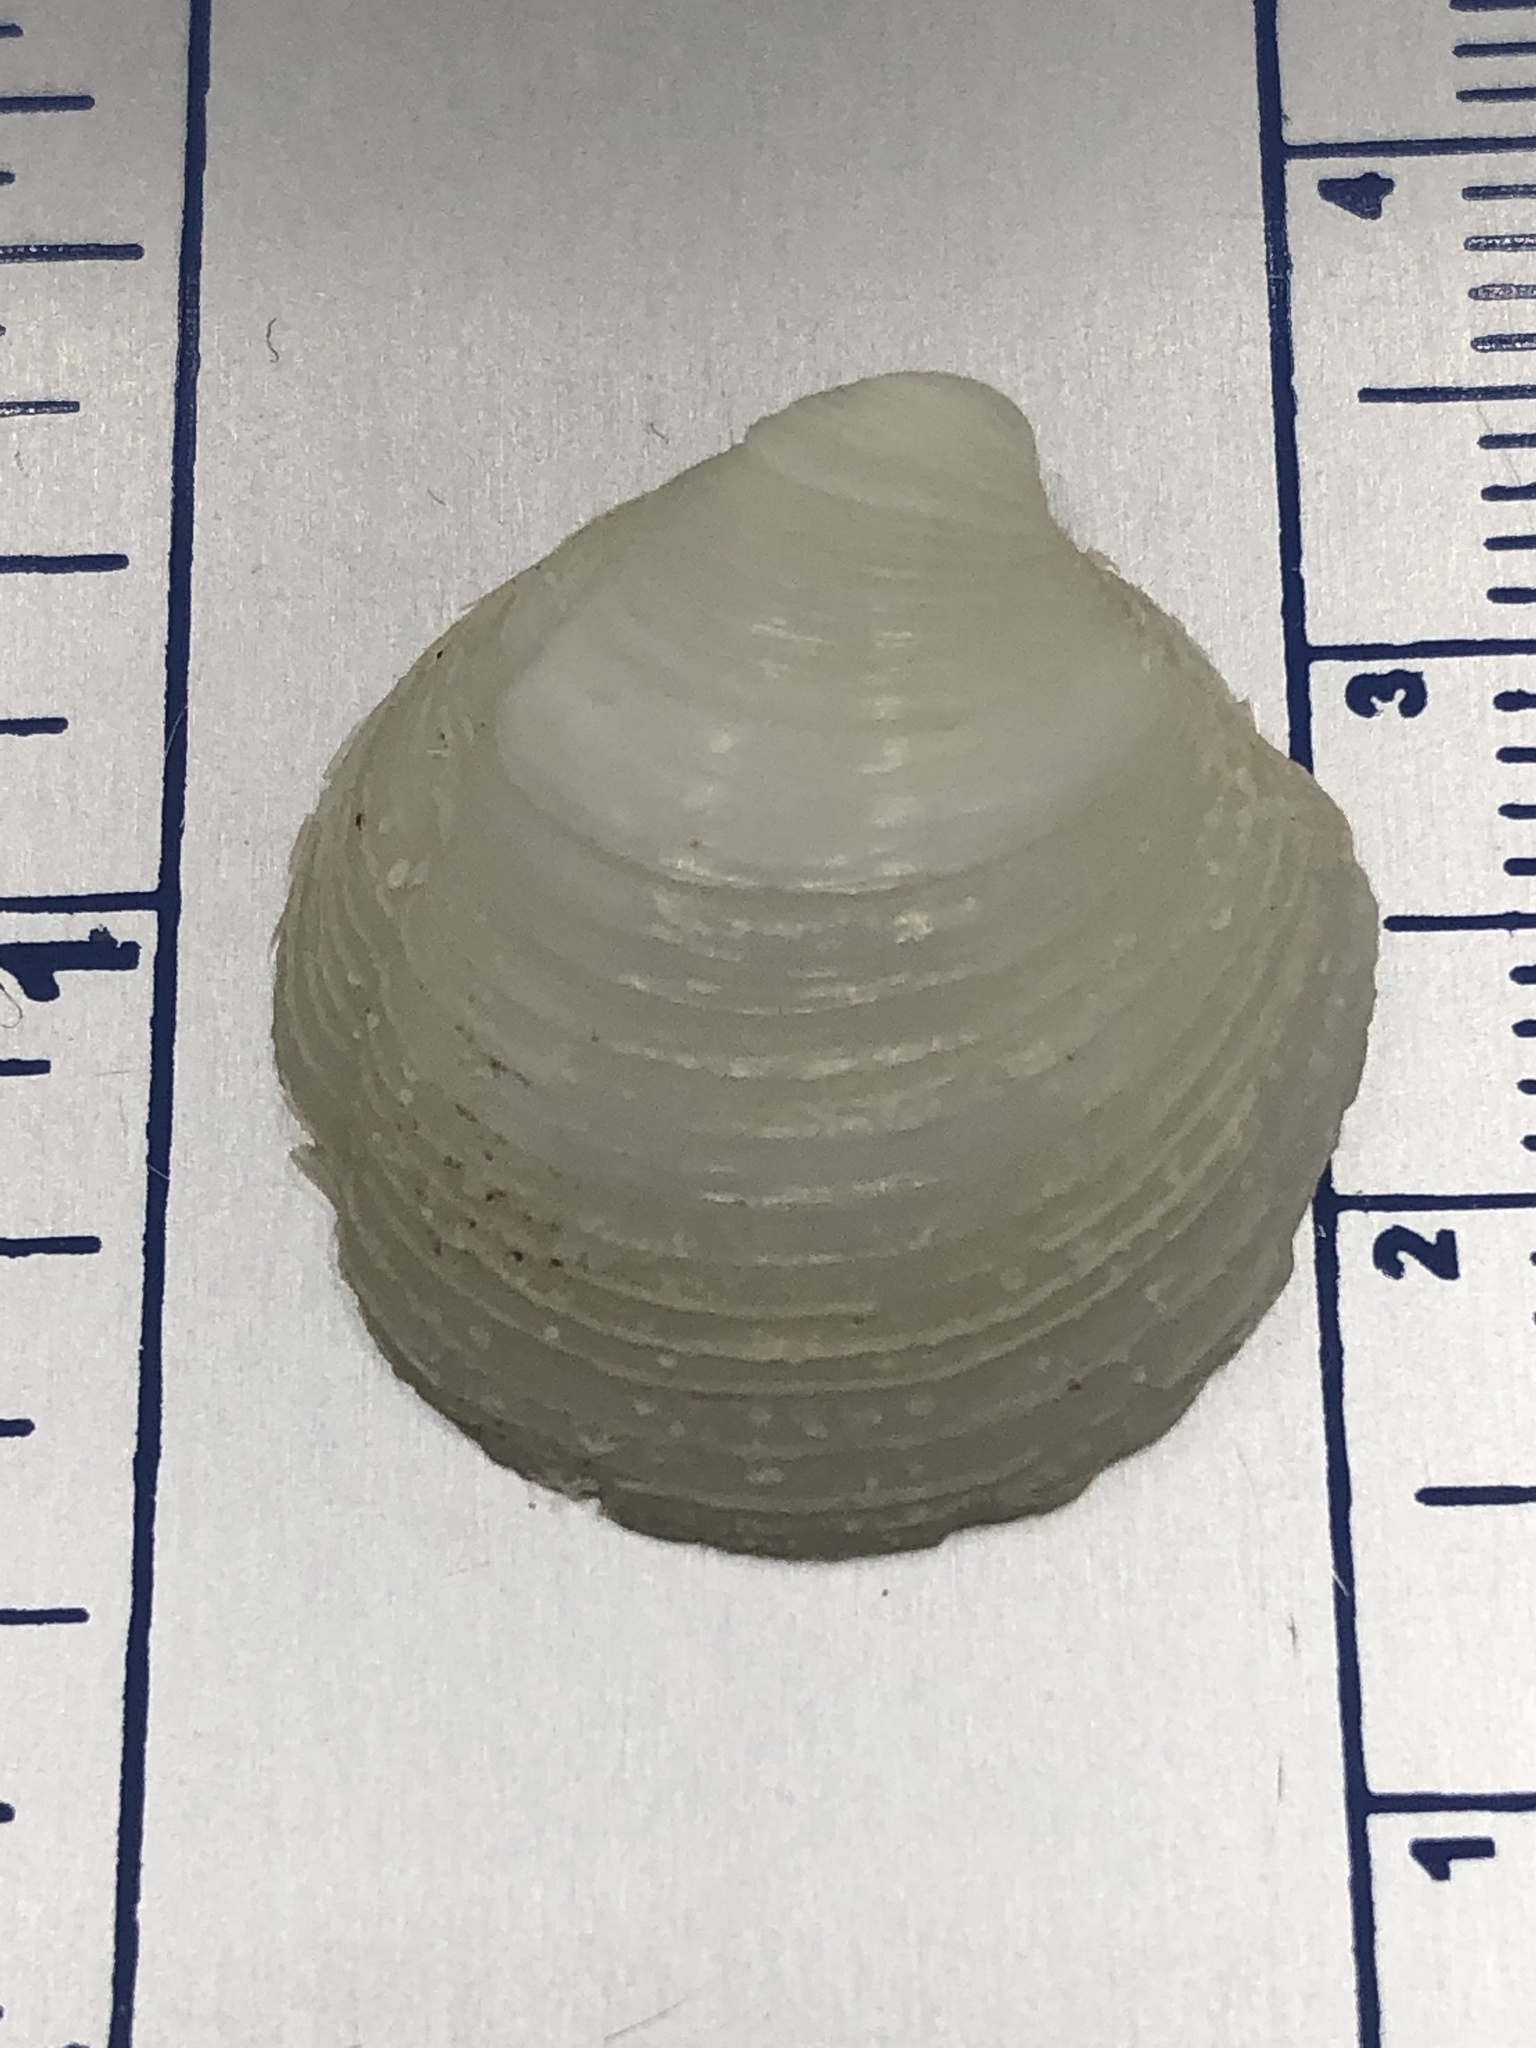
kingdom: Animalia
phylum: Mollusca
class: Bivalvia
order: Lucinida
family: Lucinidae
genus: Lucina
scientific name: Lucina pensylvanica
